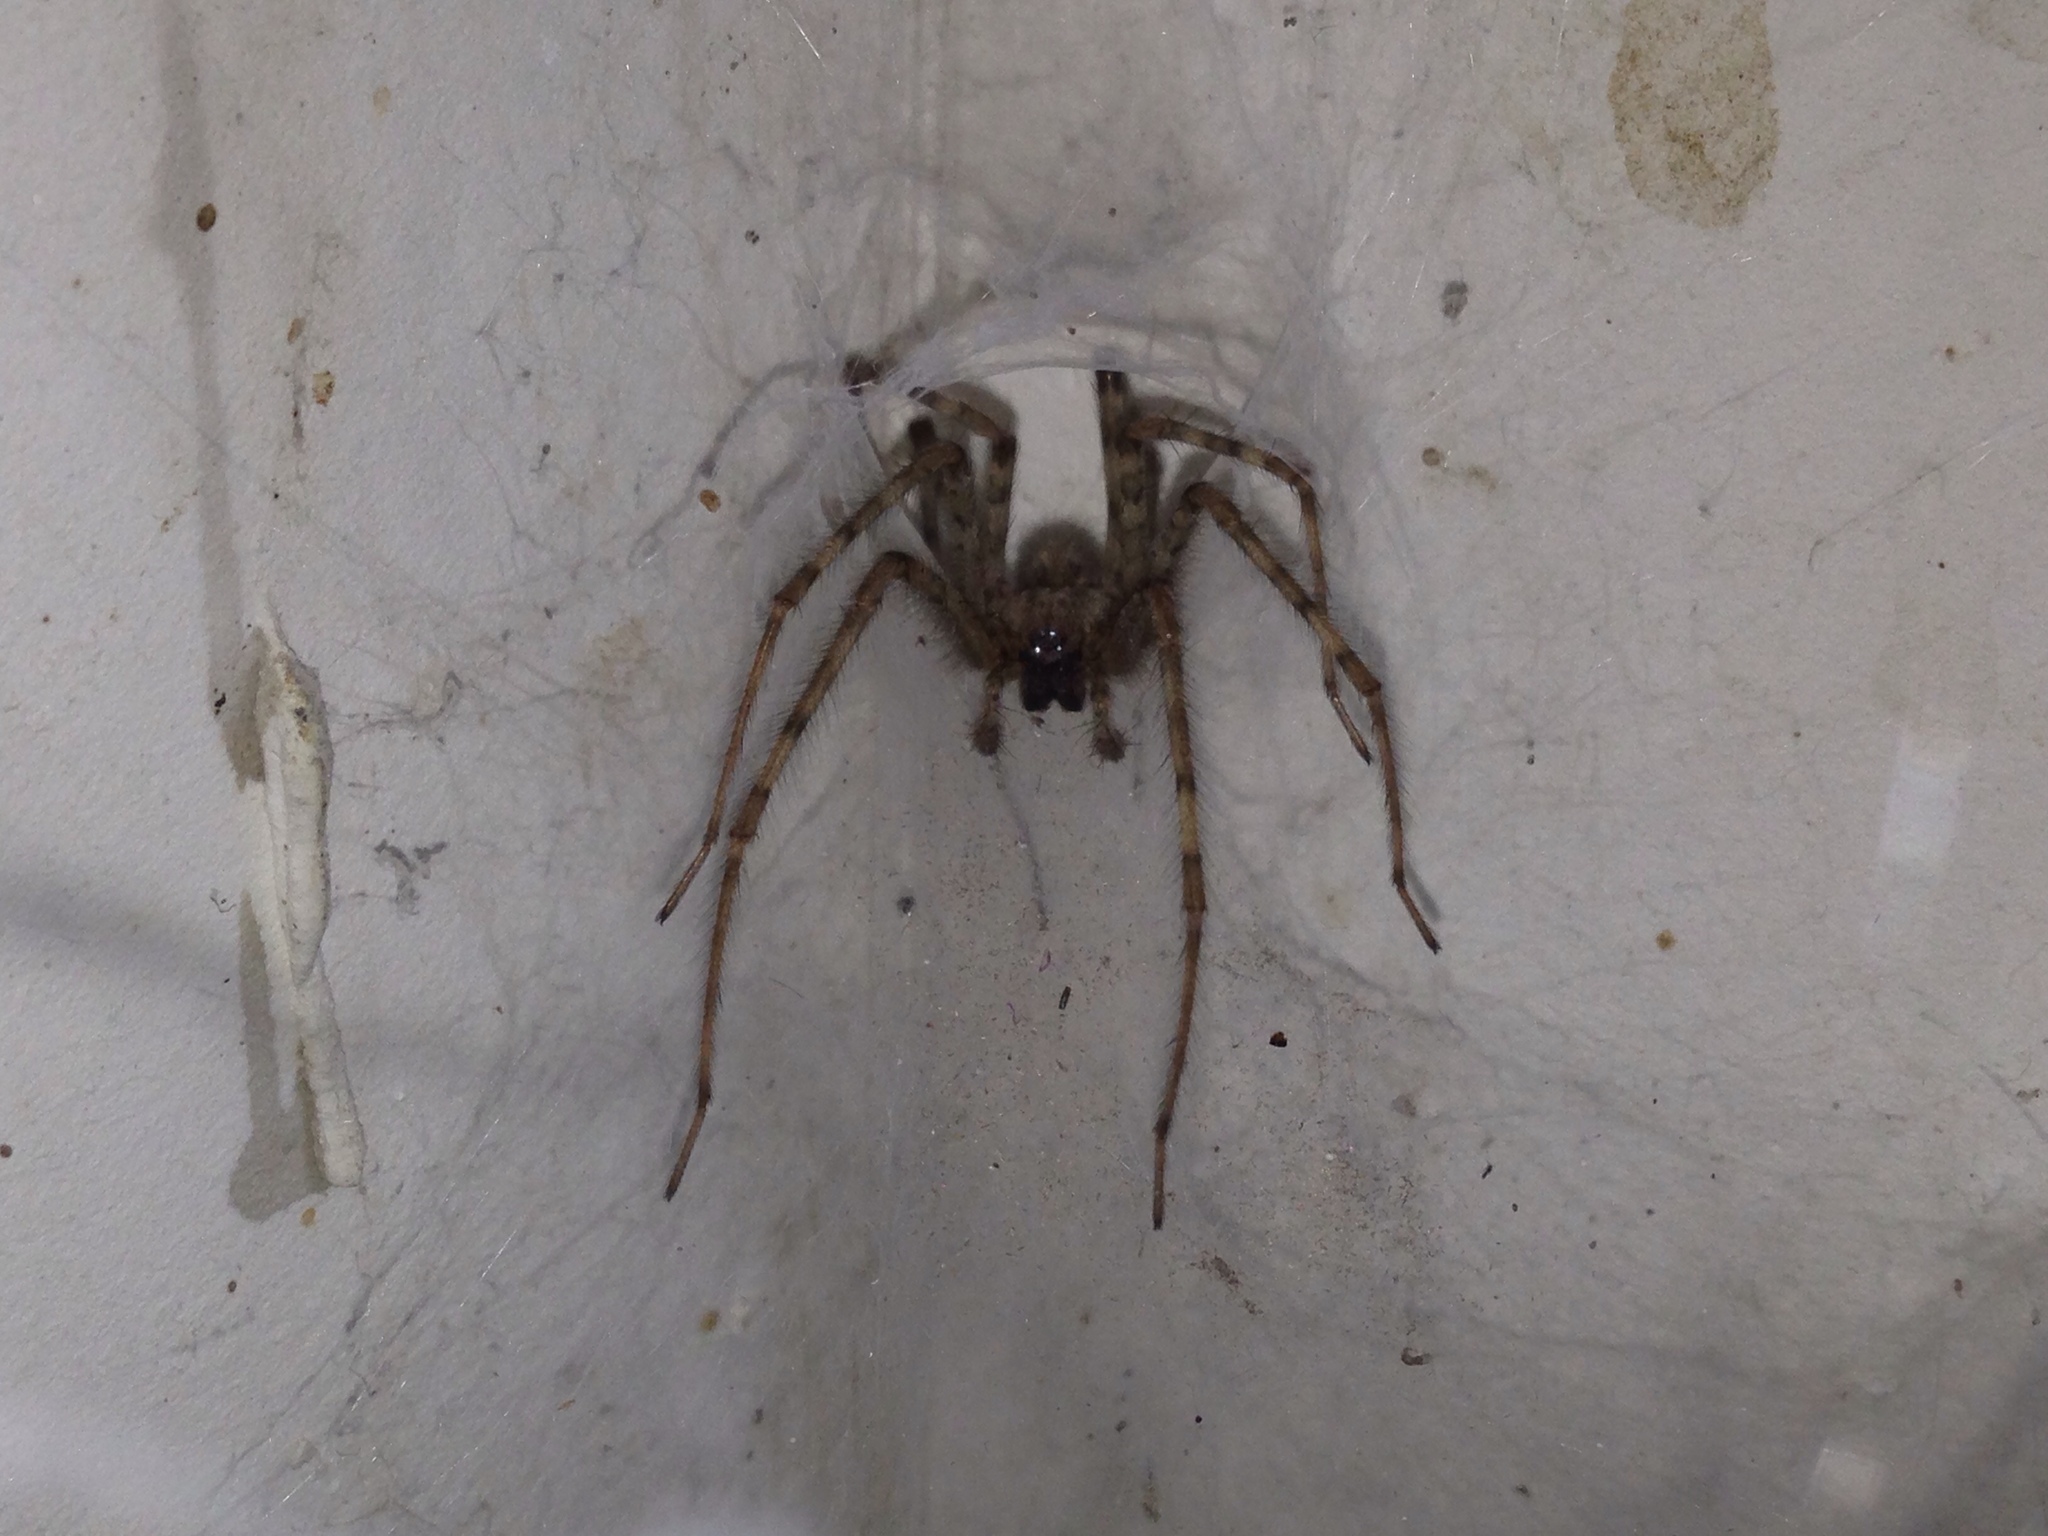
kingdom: Animalia
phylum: Arthropoda
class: Arachnida
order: Araneae
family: Agelenidae
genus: Tegenaria
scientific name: Tegenaria parietina
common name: Cardinal spider
